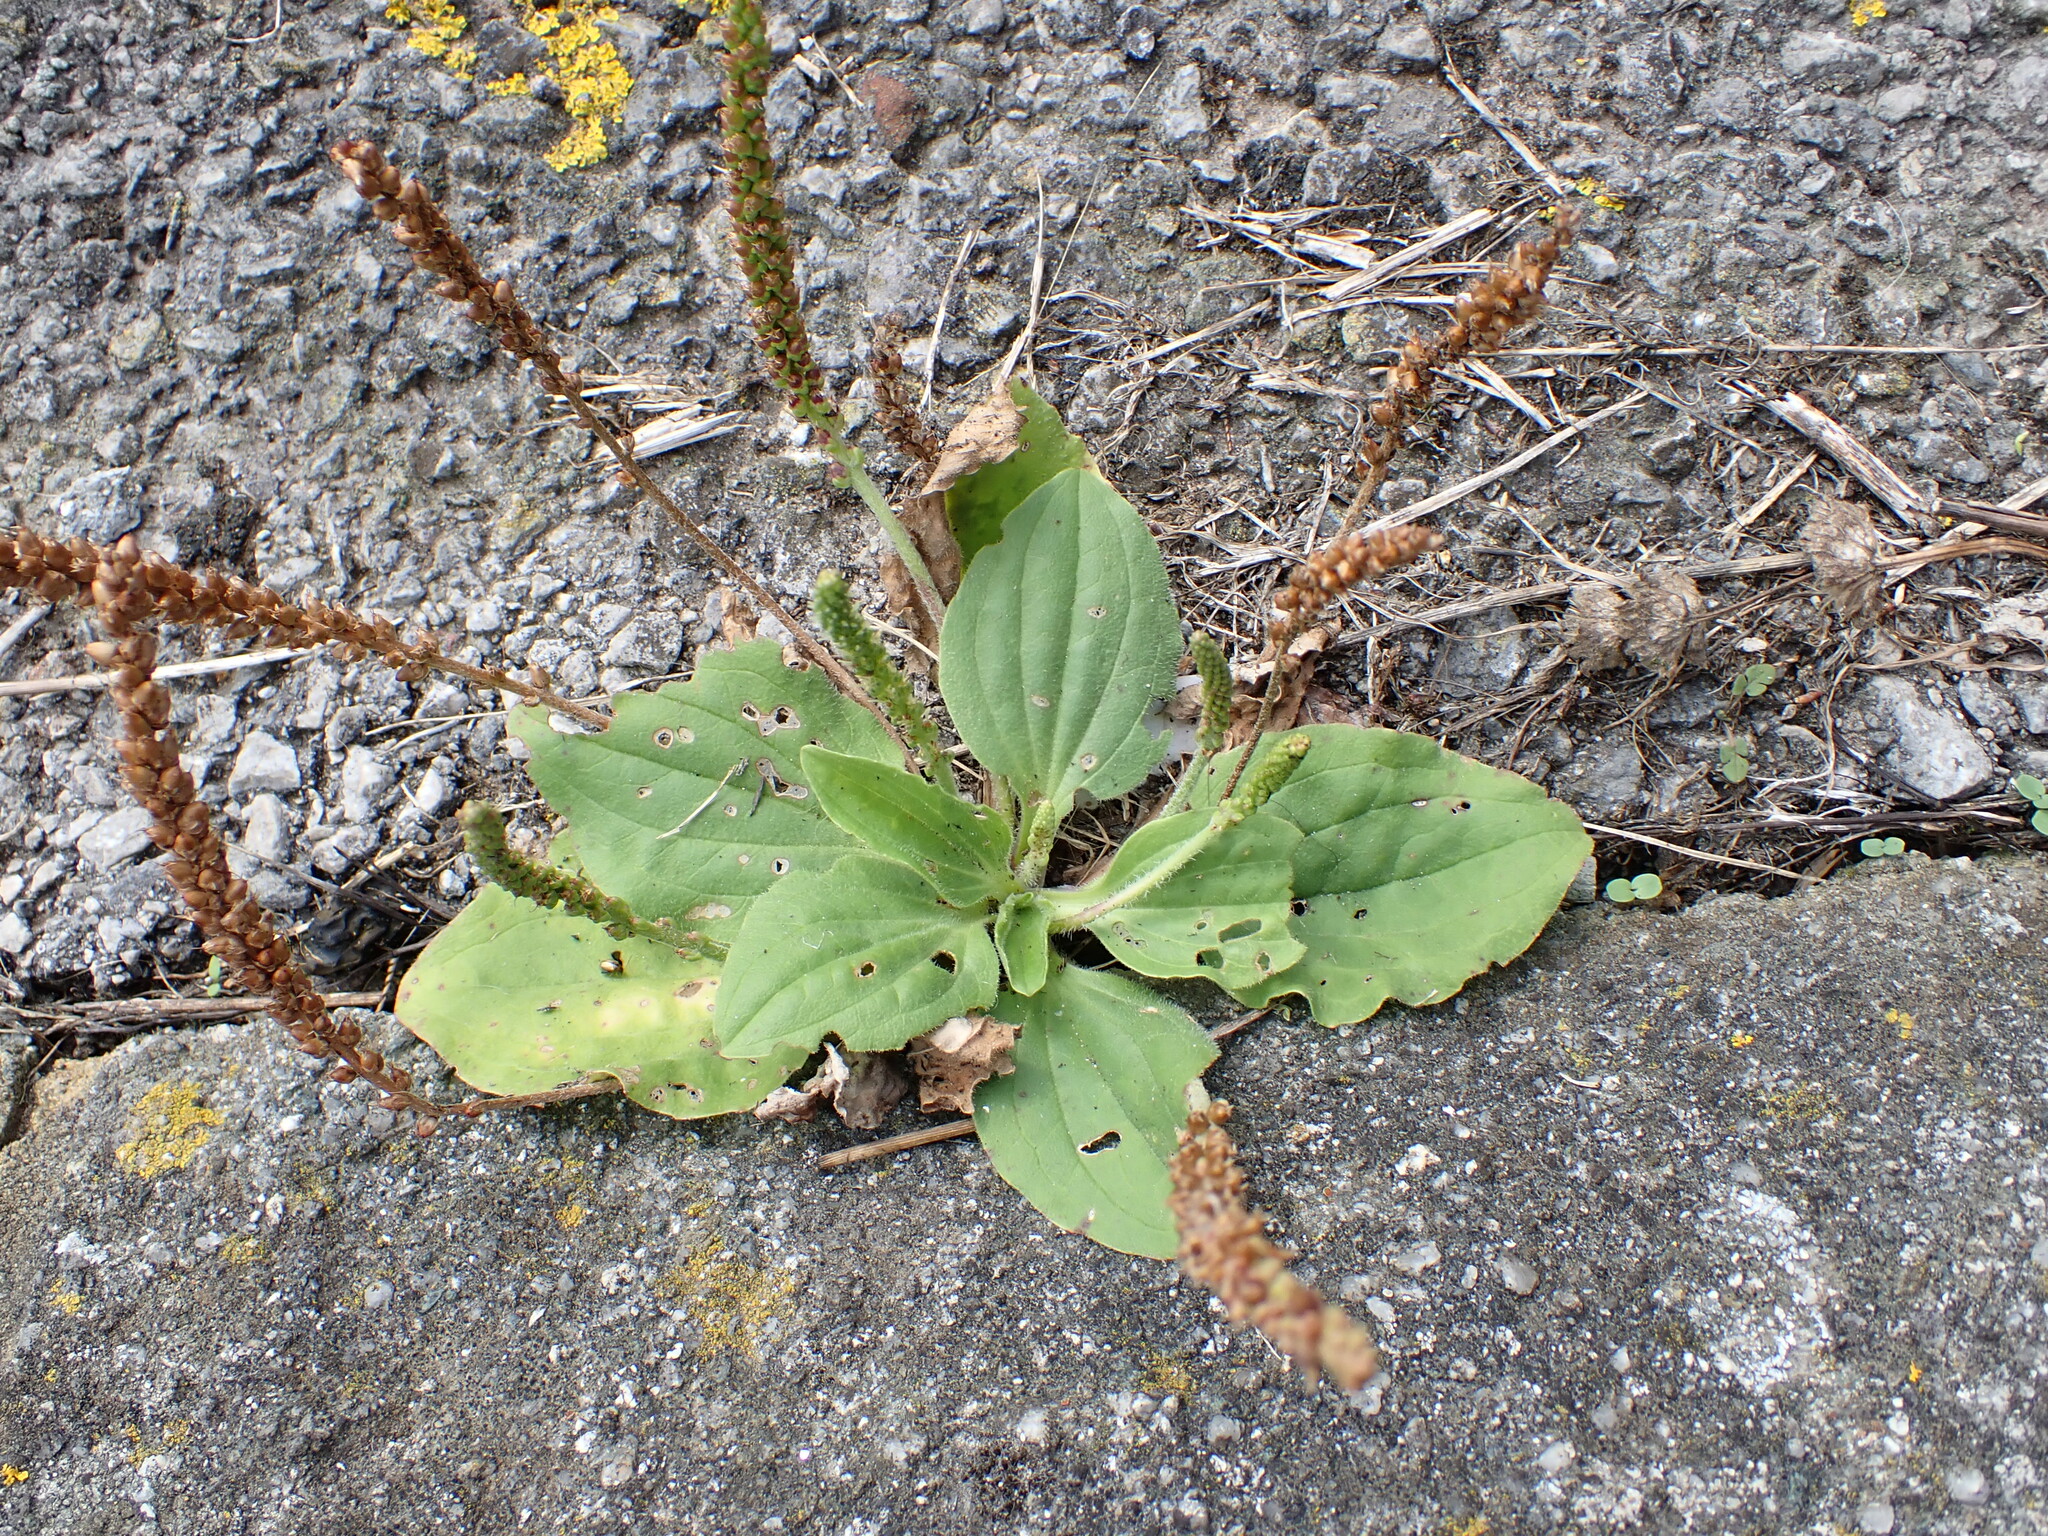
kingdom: Plantae
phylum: Tracheophyta
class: Magnoliopsida
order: Lamiales
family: Plantaginaceae
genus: Plantago
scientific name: Plantago major
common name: Common plantain
